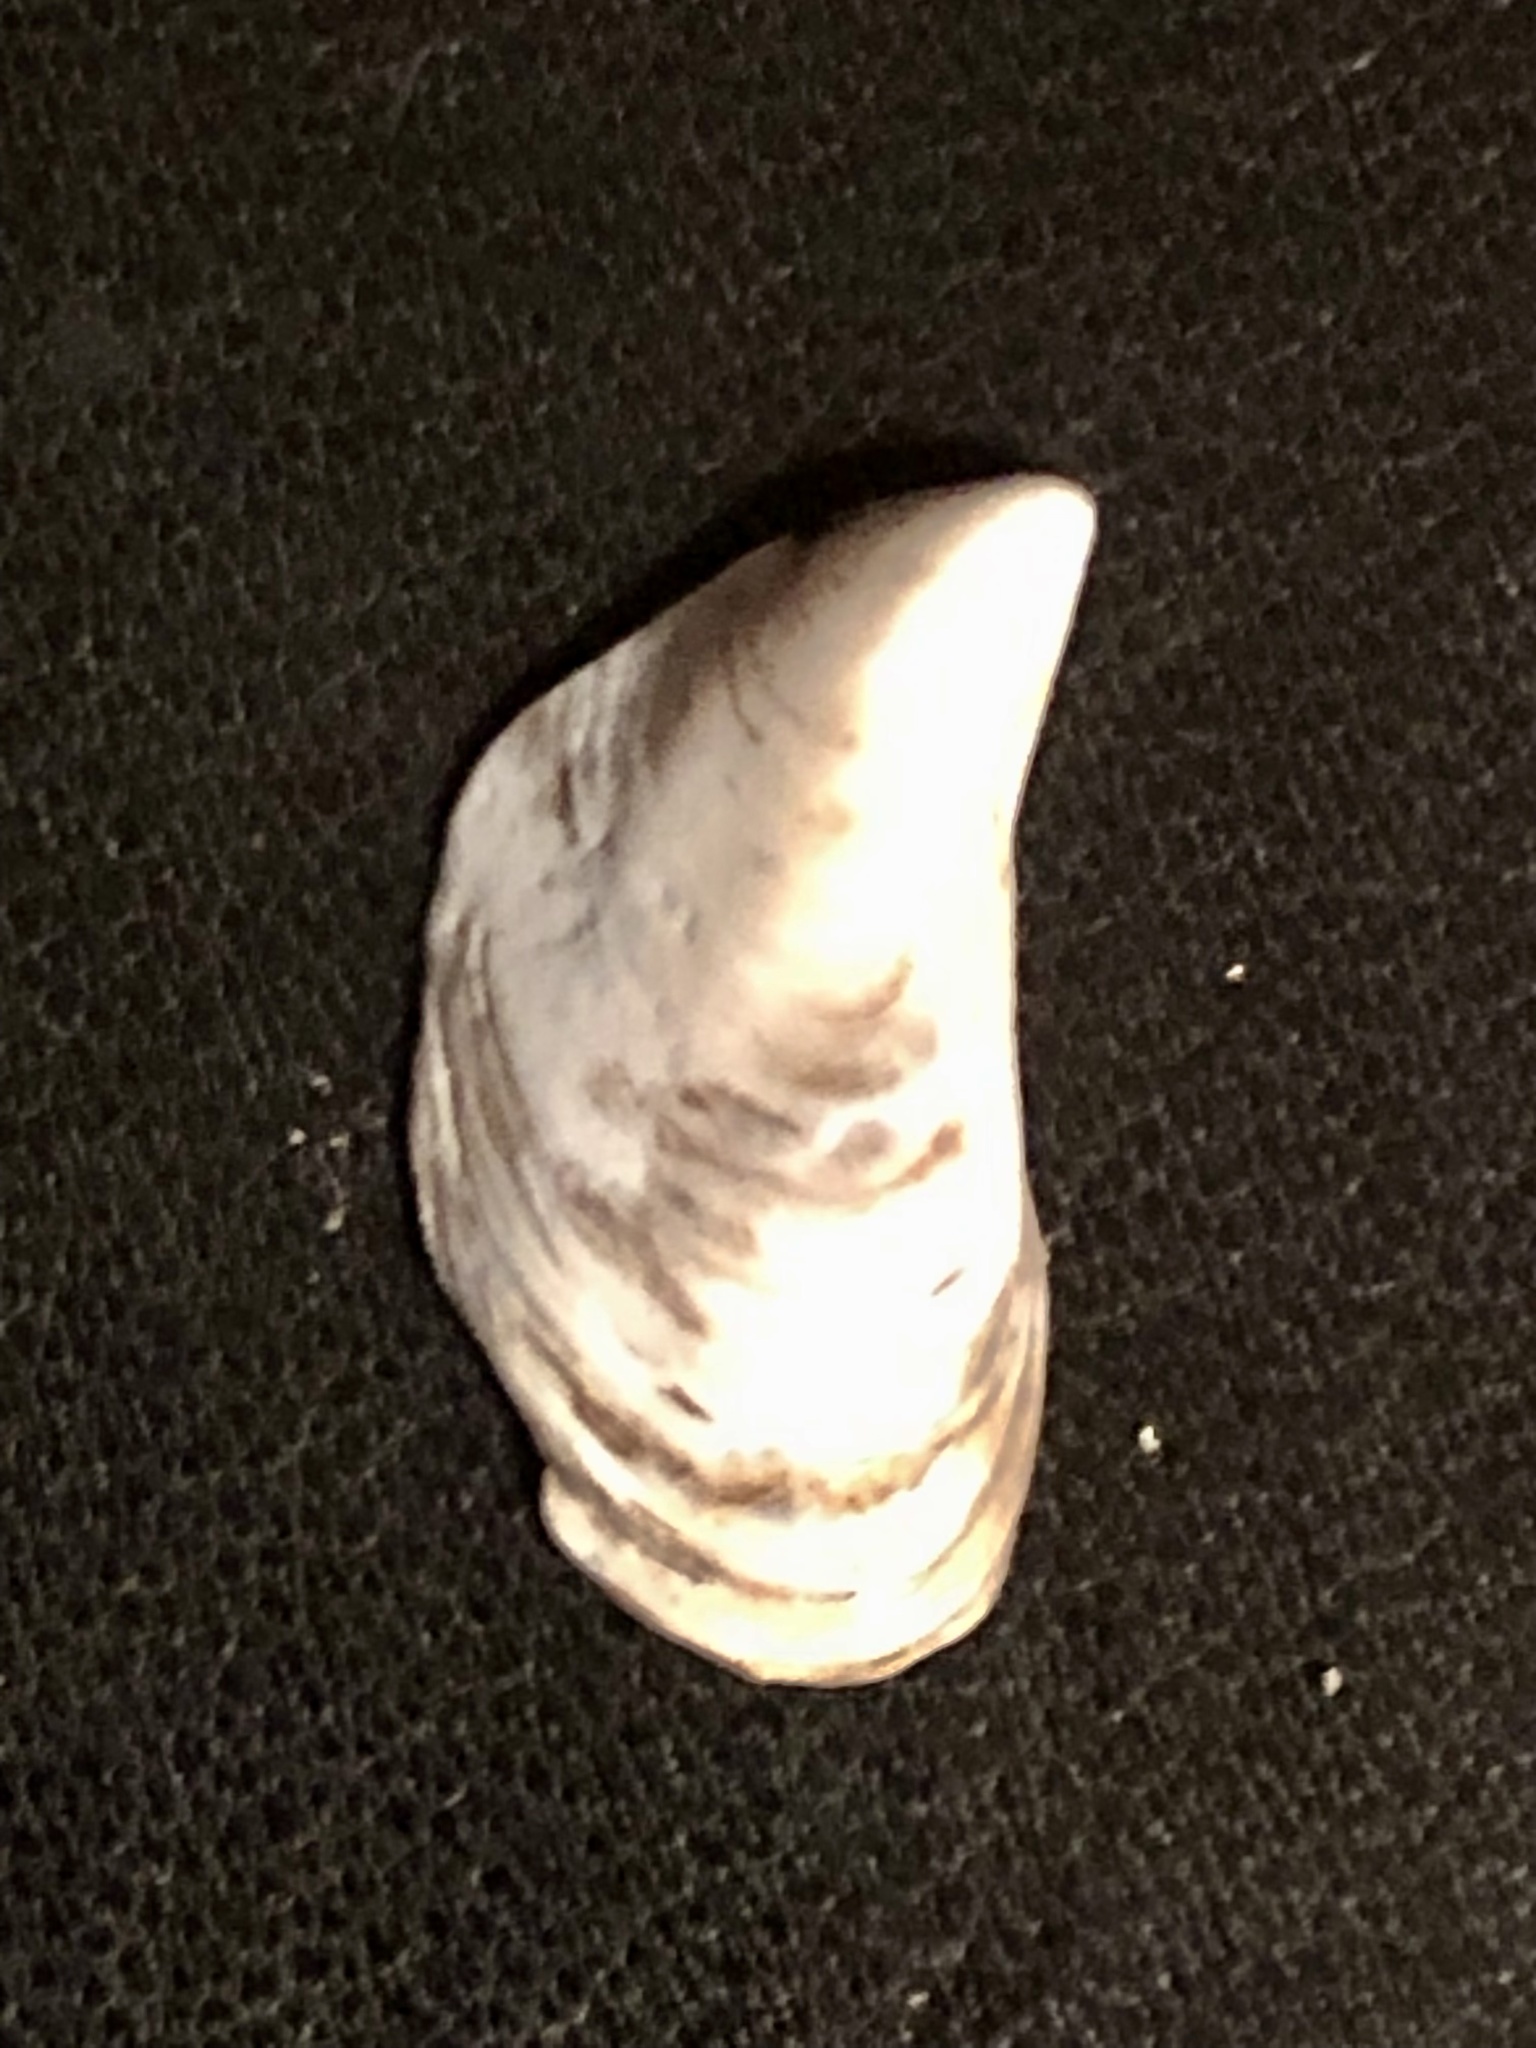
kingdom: Animalia
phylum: Mollusca
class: Bivalvia
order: Myida
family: Dreissenidae
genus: Dreissena
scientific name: Dreissena bugensis
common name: Quagga mussel
